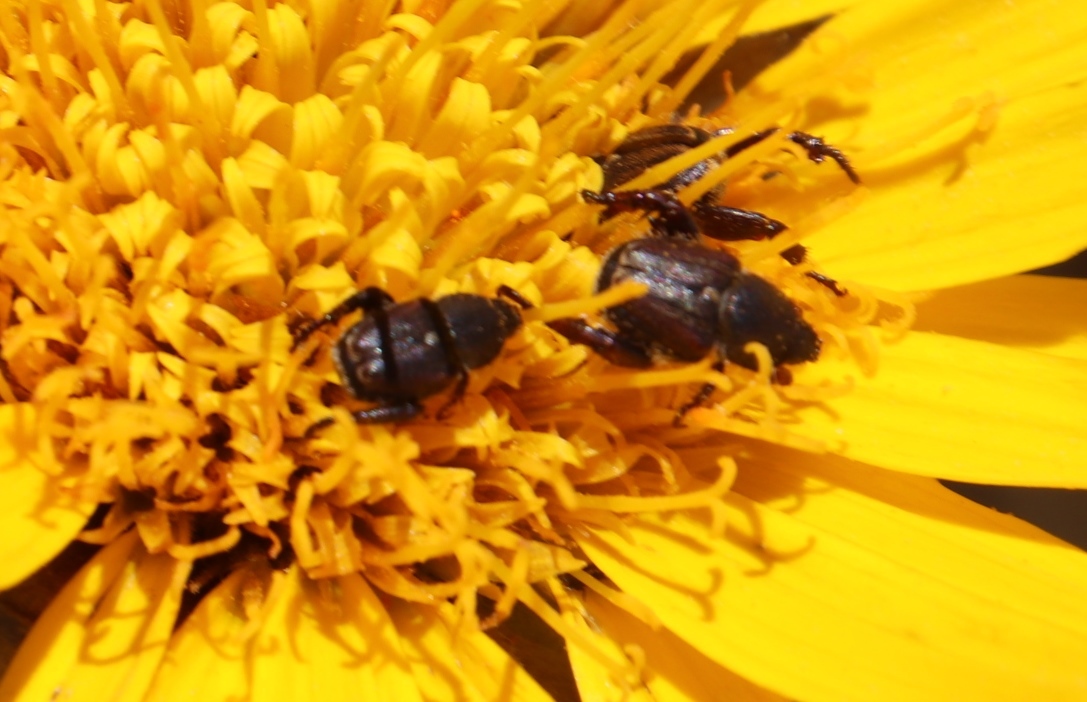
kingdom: Plantae
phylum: Tracheophyta
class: Magnoliopsida
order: Asterales
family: Asteraceae
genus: Heterolepis
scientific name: Heterolepis aliena
